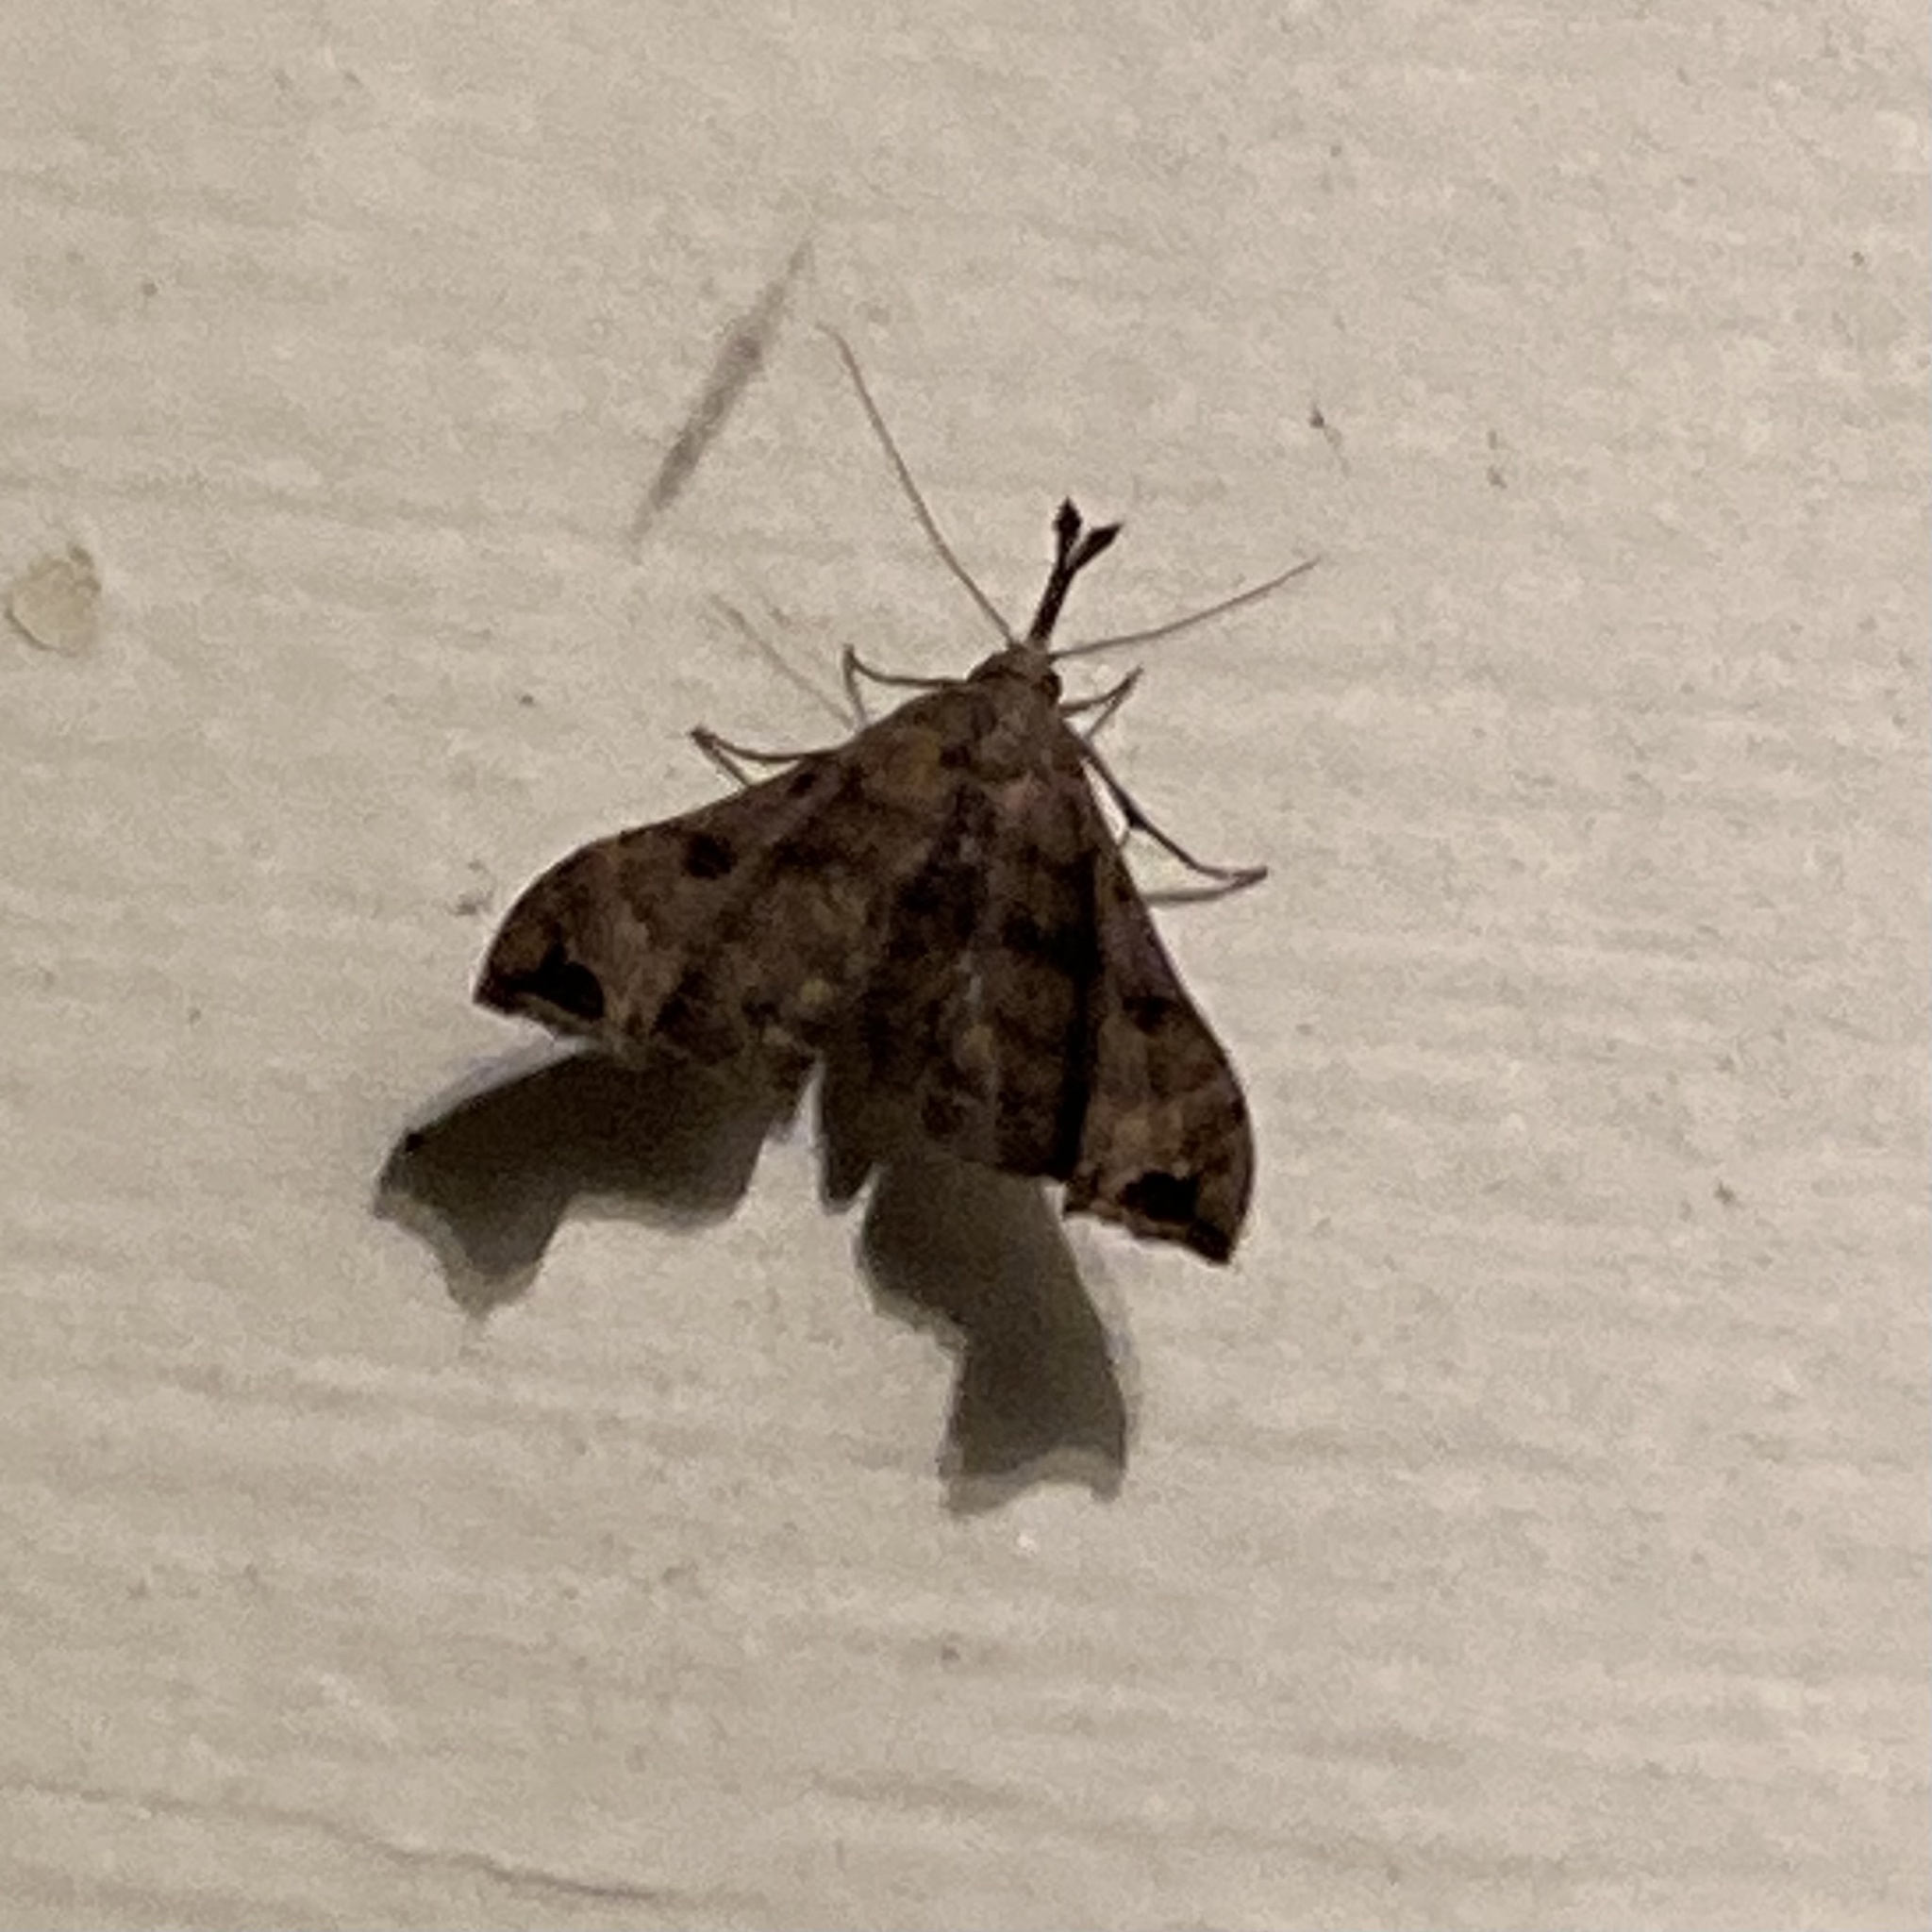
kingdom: Animalia
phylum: Arthropoda
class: Insecta
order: Lepidoptera
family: Erebidae
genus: Palthis
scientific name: Palthis asopialis
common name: Faint-spotted palthis moth
